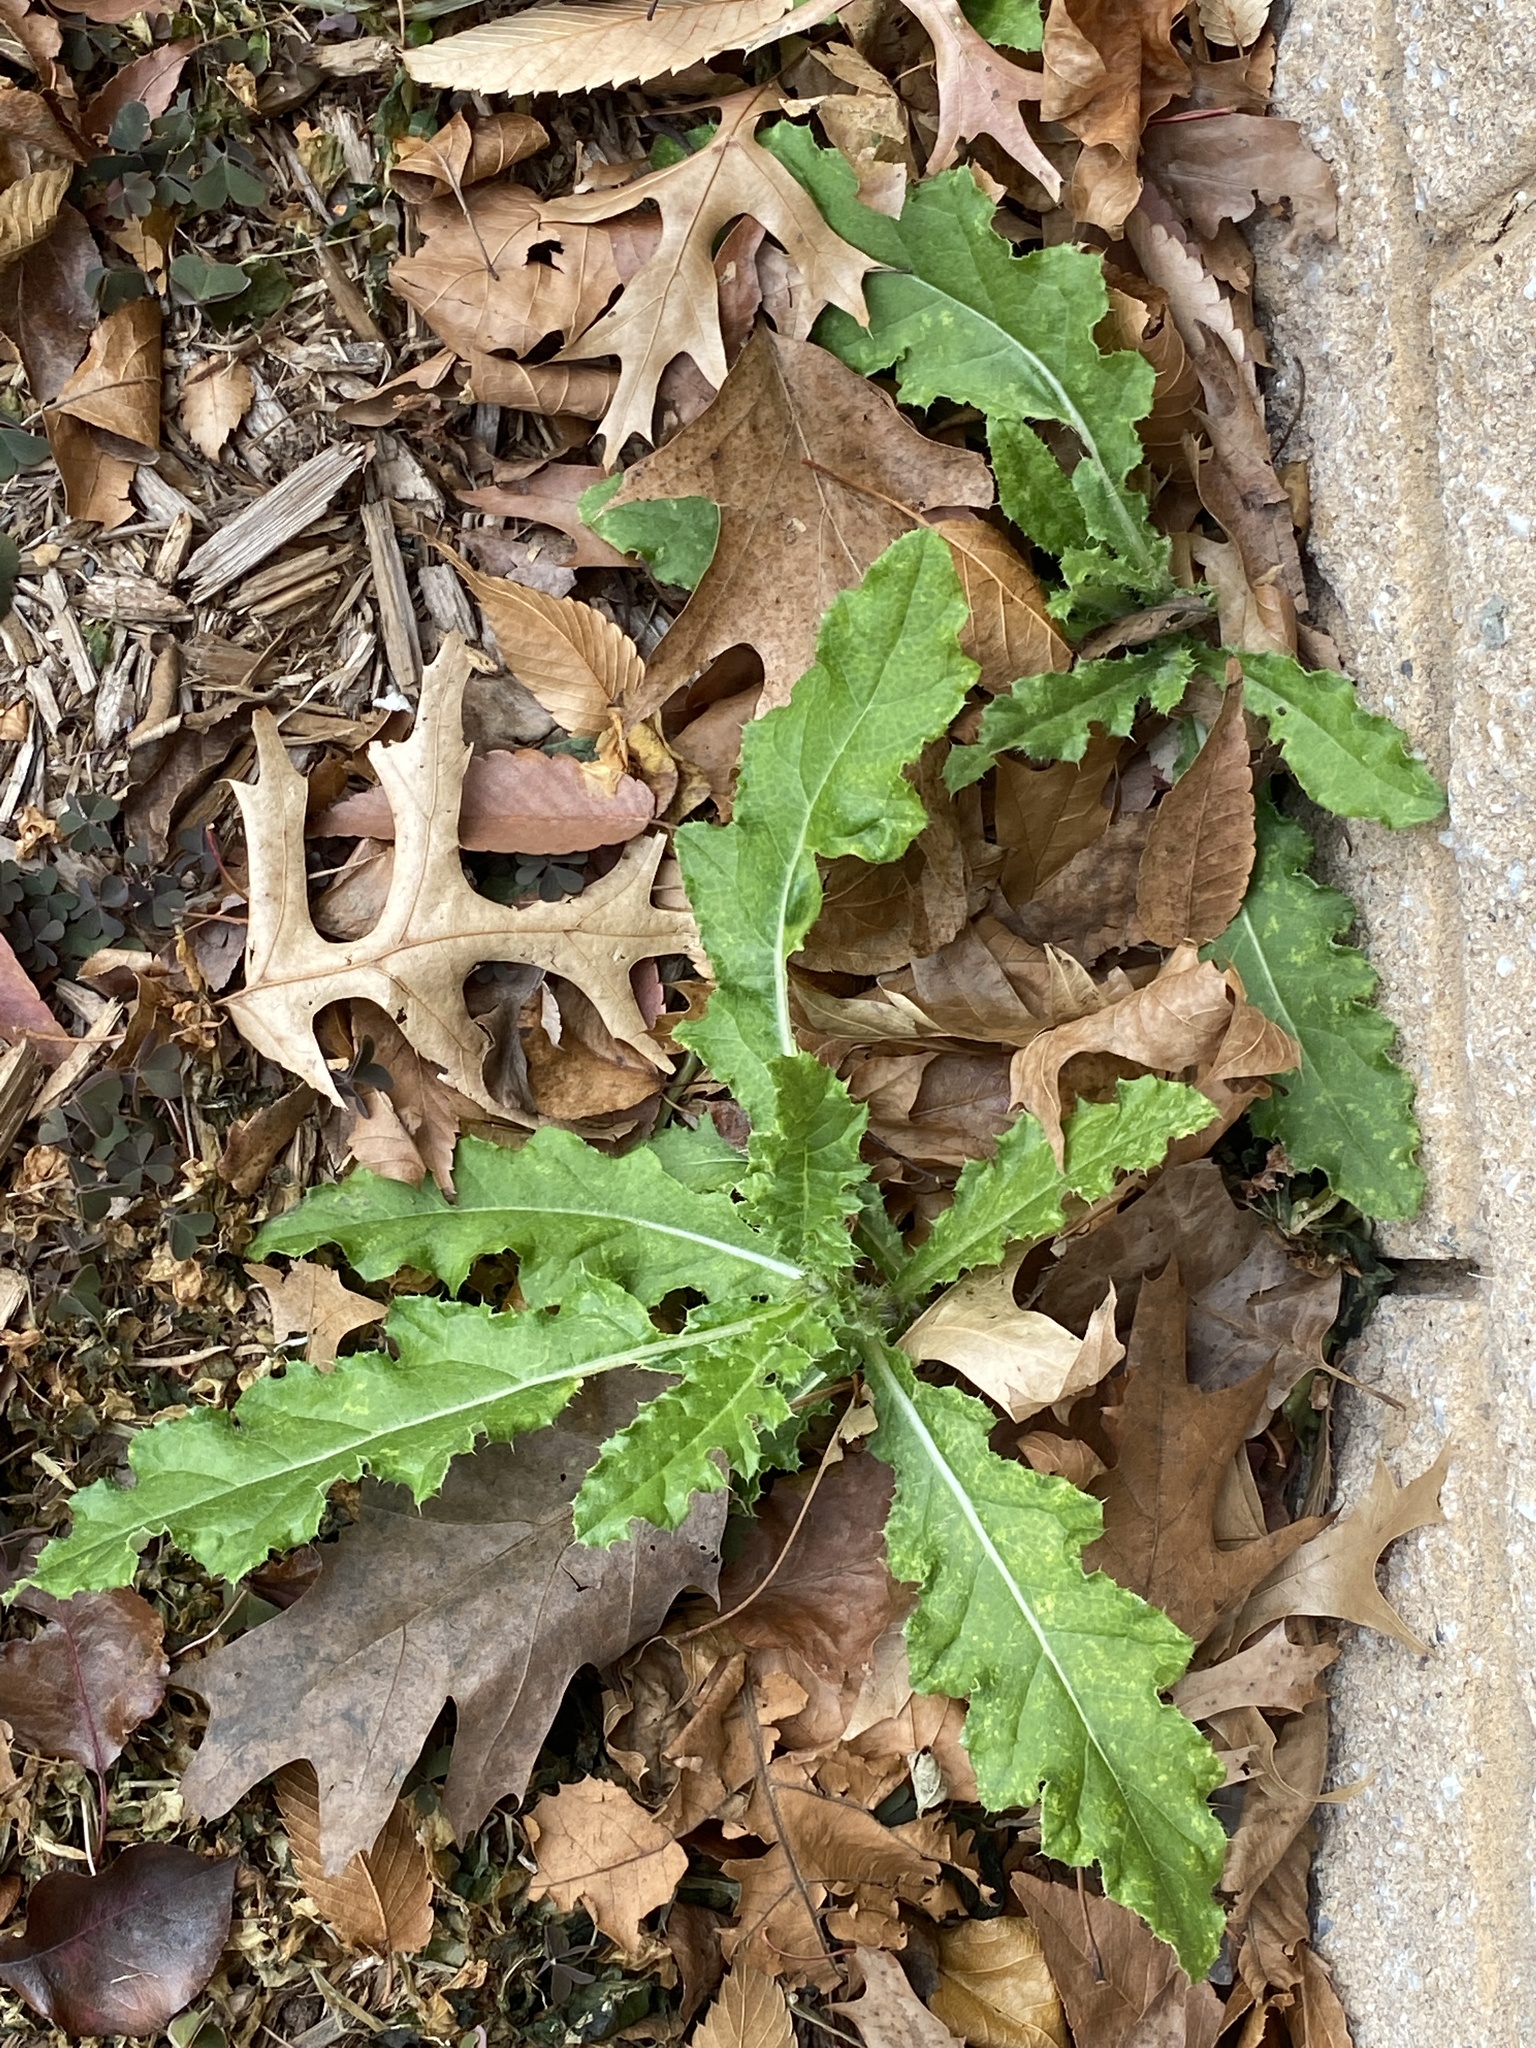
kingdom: Plantae
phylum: Tracheophyta
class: Magnoliopsida
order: Asterales
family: Asteraceae
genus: Cirsium
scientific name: Cirsium arvense
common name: Creeping thistle
